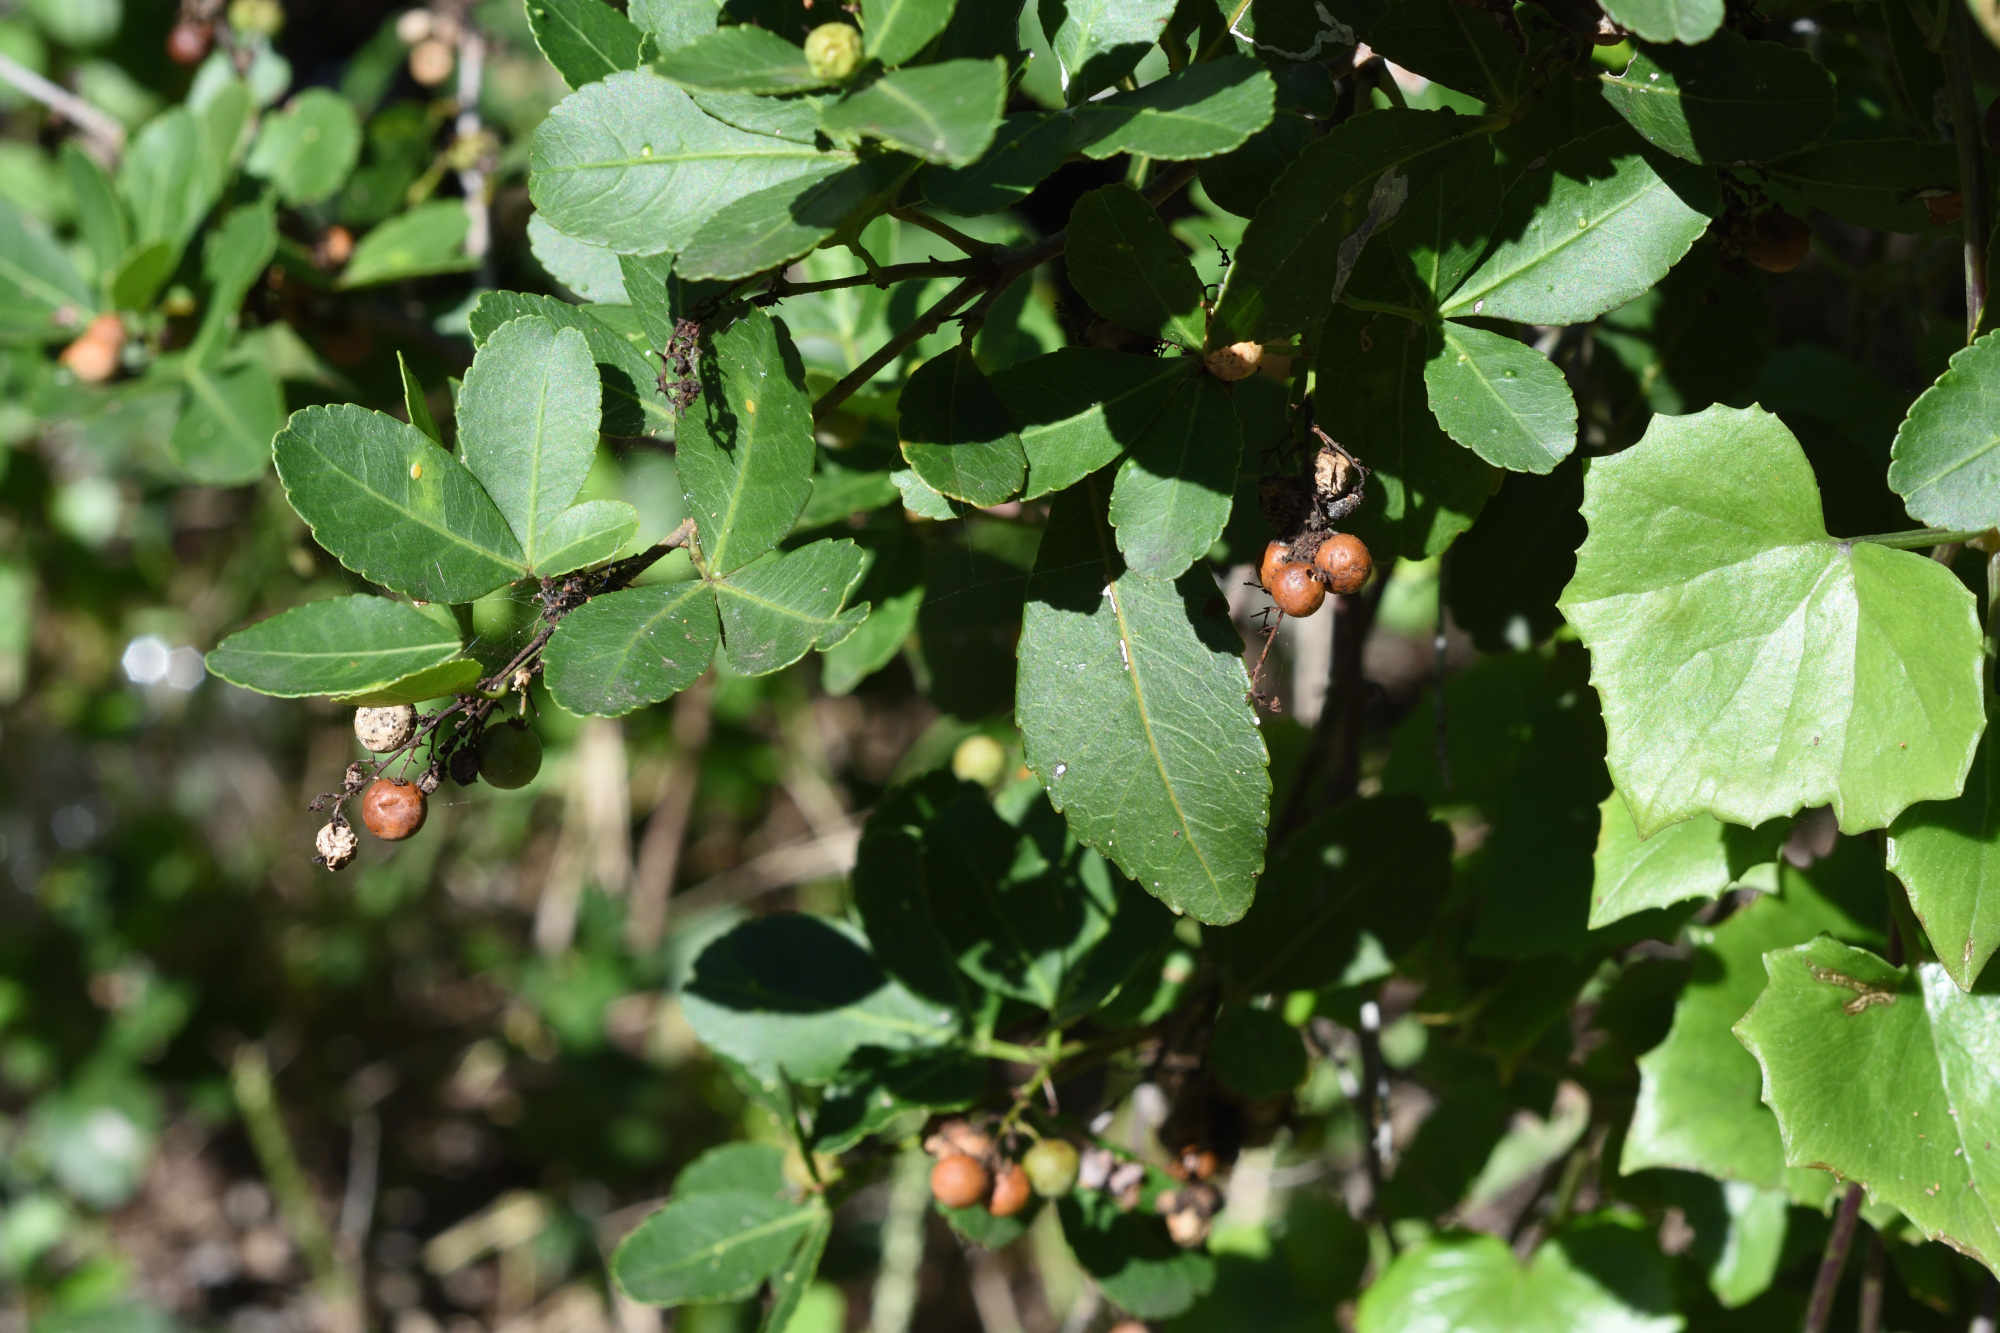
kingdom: Plantae
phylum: Tracheophyta
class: Magnoliopsida
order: Sapindales
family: Anacardiaceae
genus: Searsia
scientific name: Searsia natalensis
